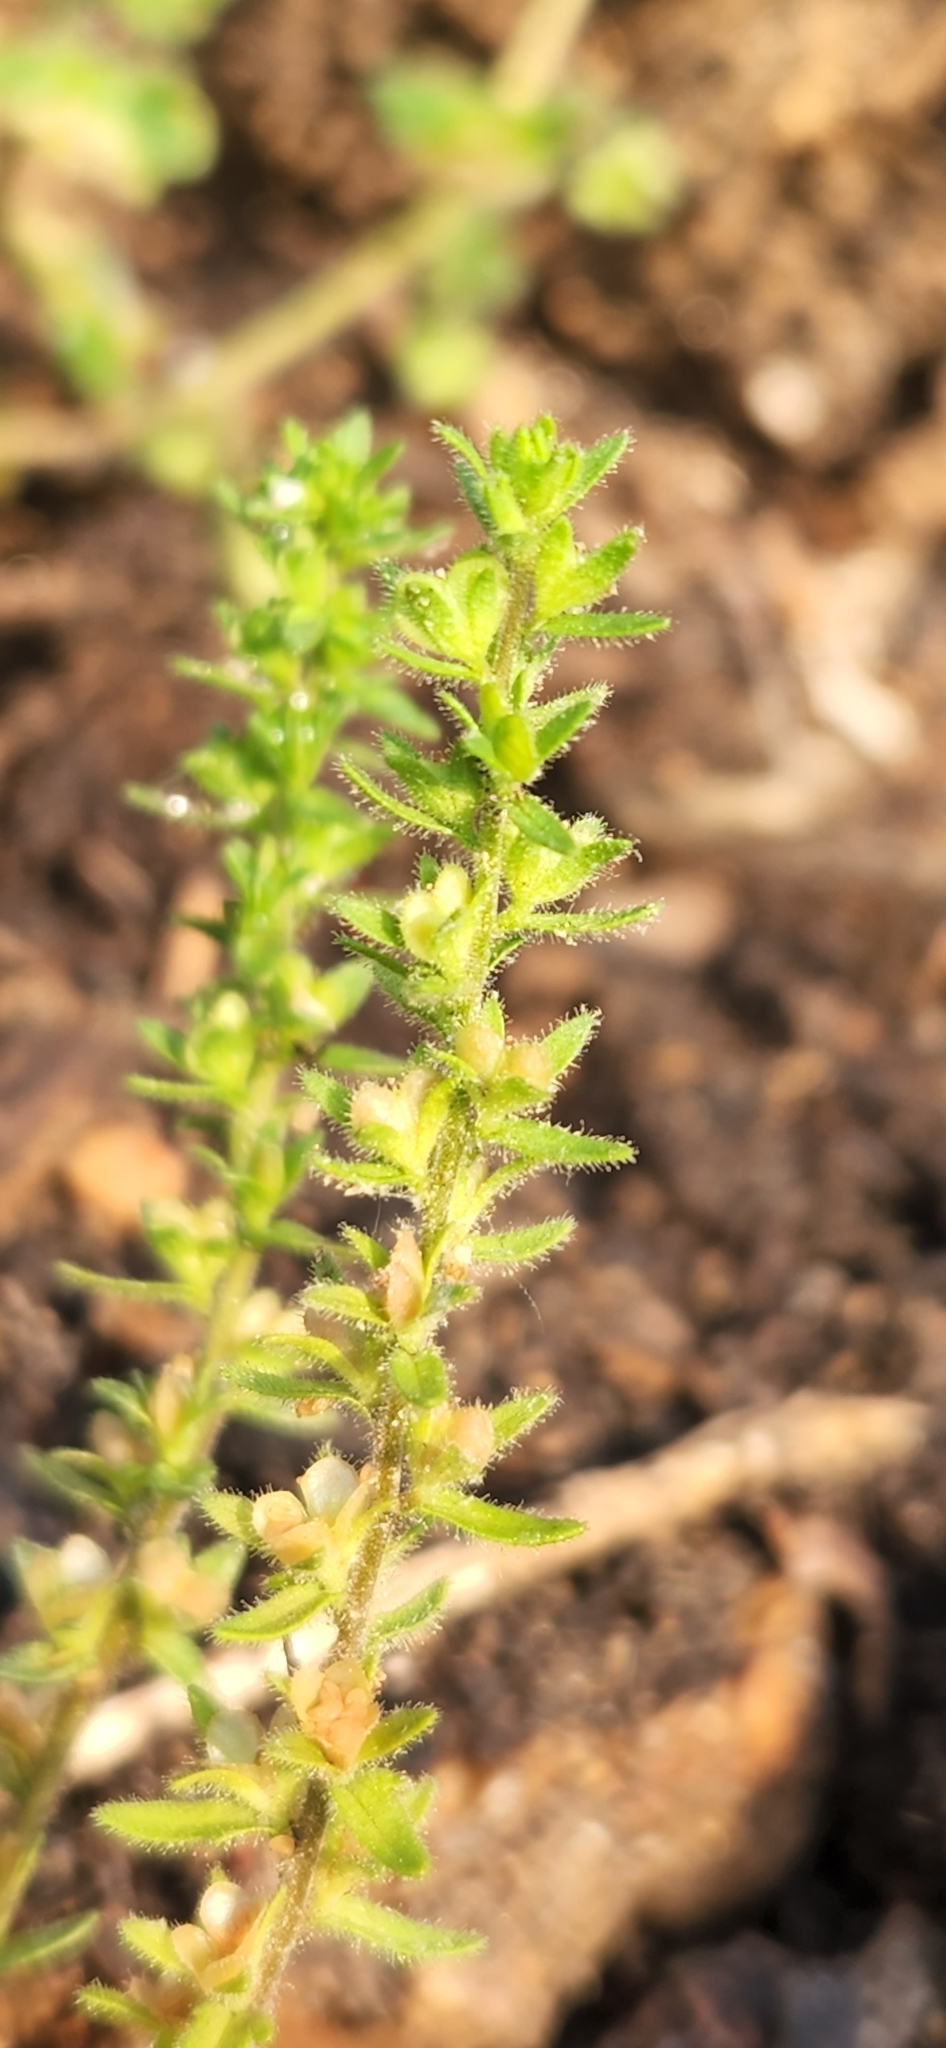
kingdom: Plantae
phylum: Tracheophyta
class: Magnoliopsida
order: Lamiales
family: Plantaginaceae
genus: Veronica
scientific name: Veronica arvensis
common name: Corn speedwell
